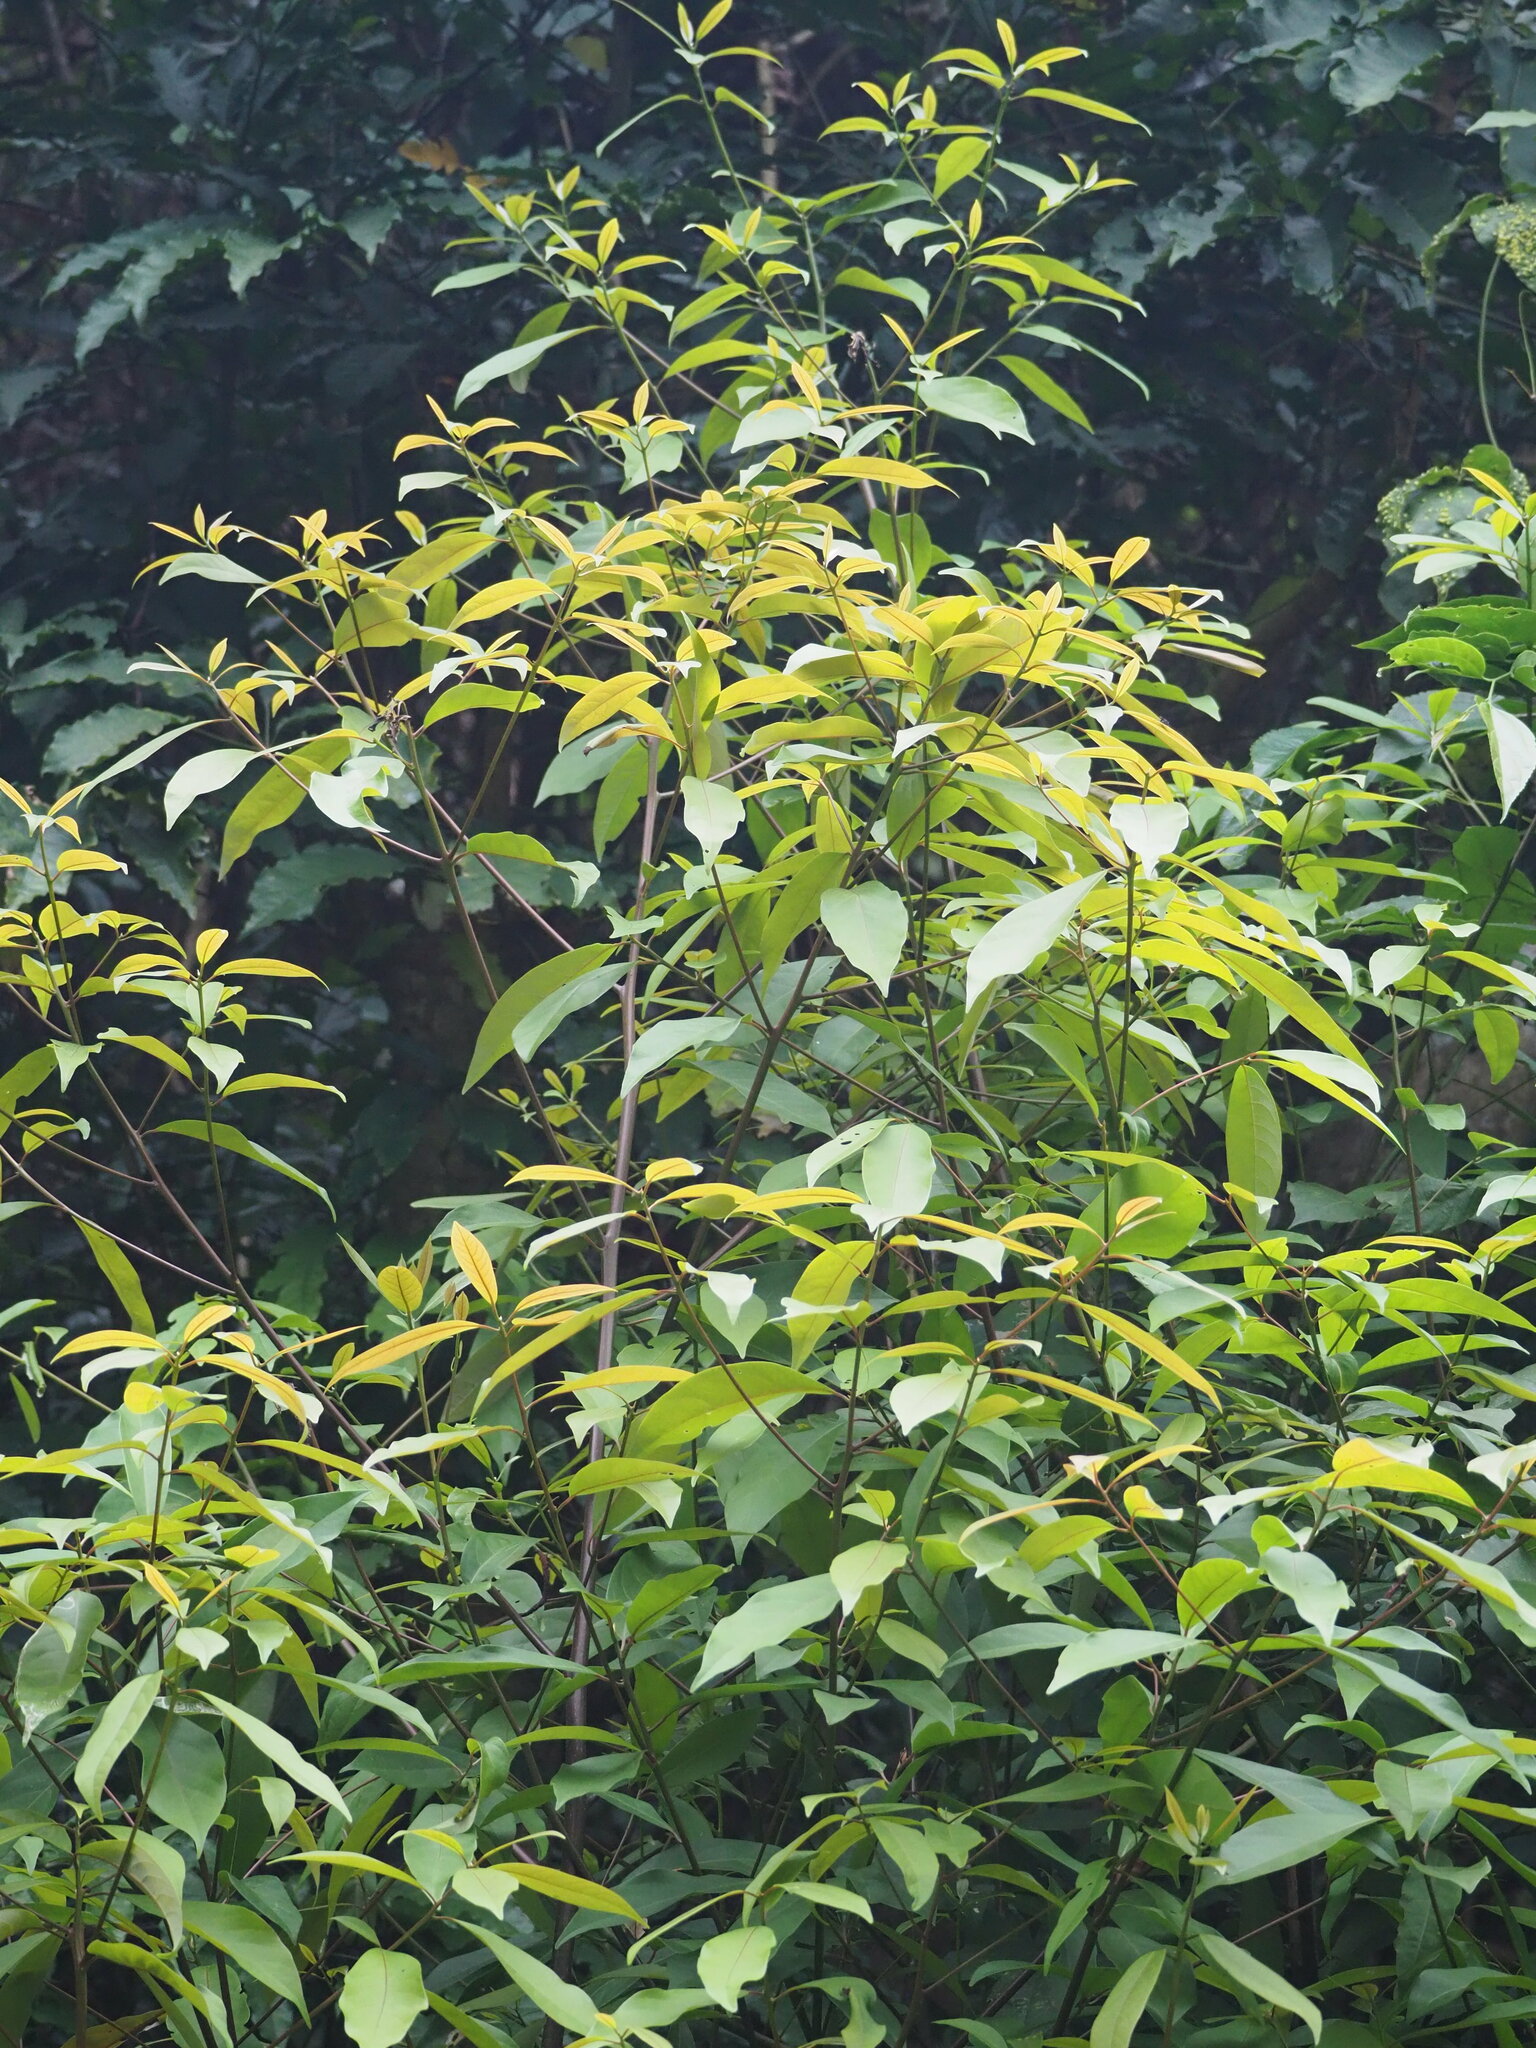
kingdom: Plantae
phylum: Tracheophyta
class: Magnoliopsida
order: Laurales
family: Lauraceae
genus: Machilus
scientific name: Machilus zuihoensis
